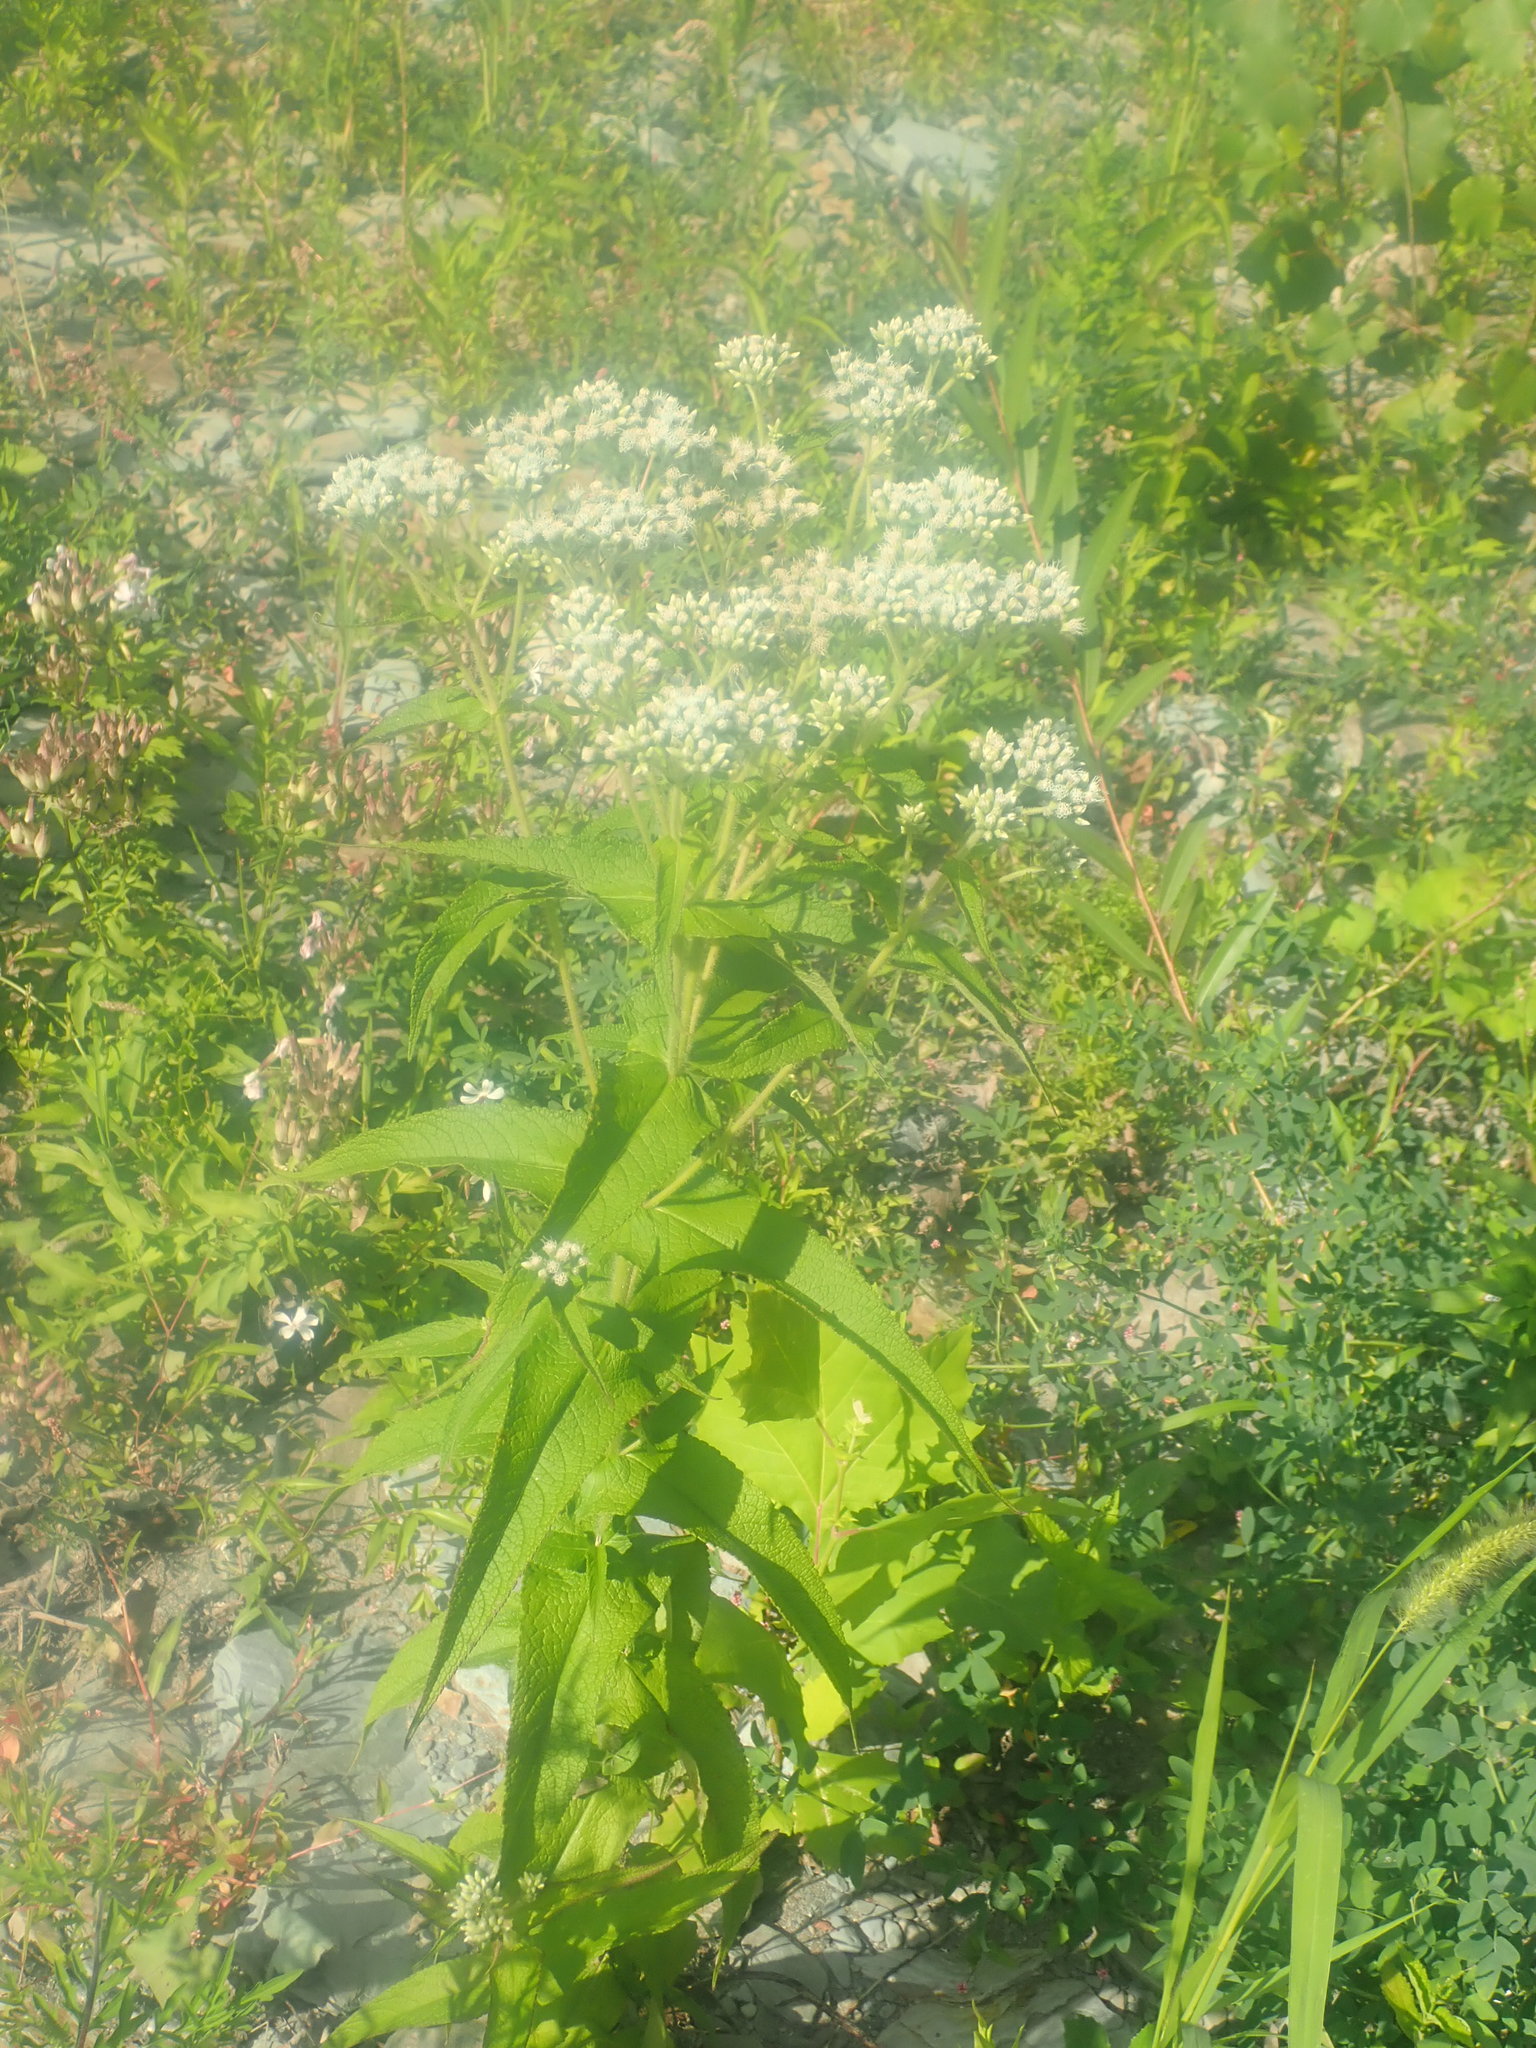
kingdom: Plantae
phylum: Tracheophyta
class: Magnoliopsida
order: Asterales
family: Asteraceae
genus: Eupatorium
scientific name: Eupatorium perfoliatum
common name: Boneset
